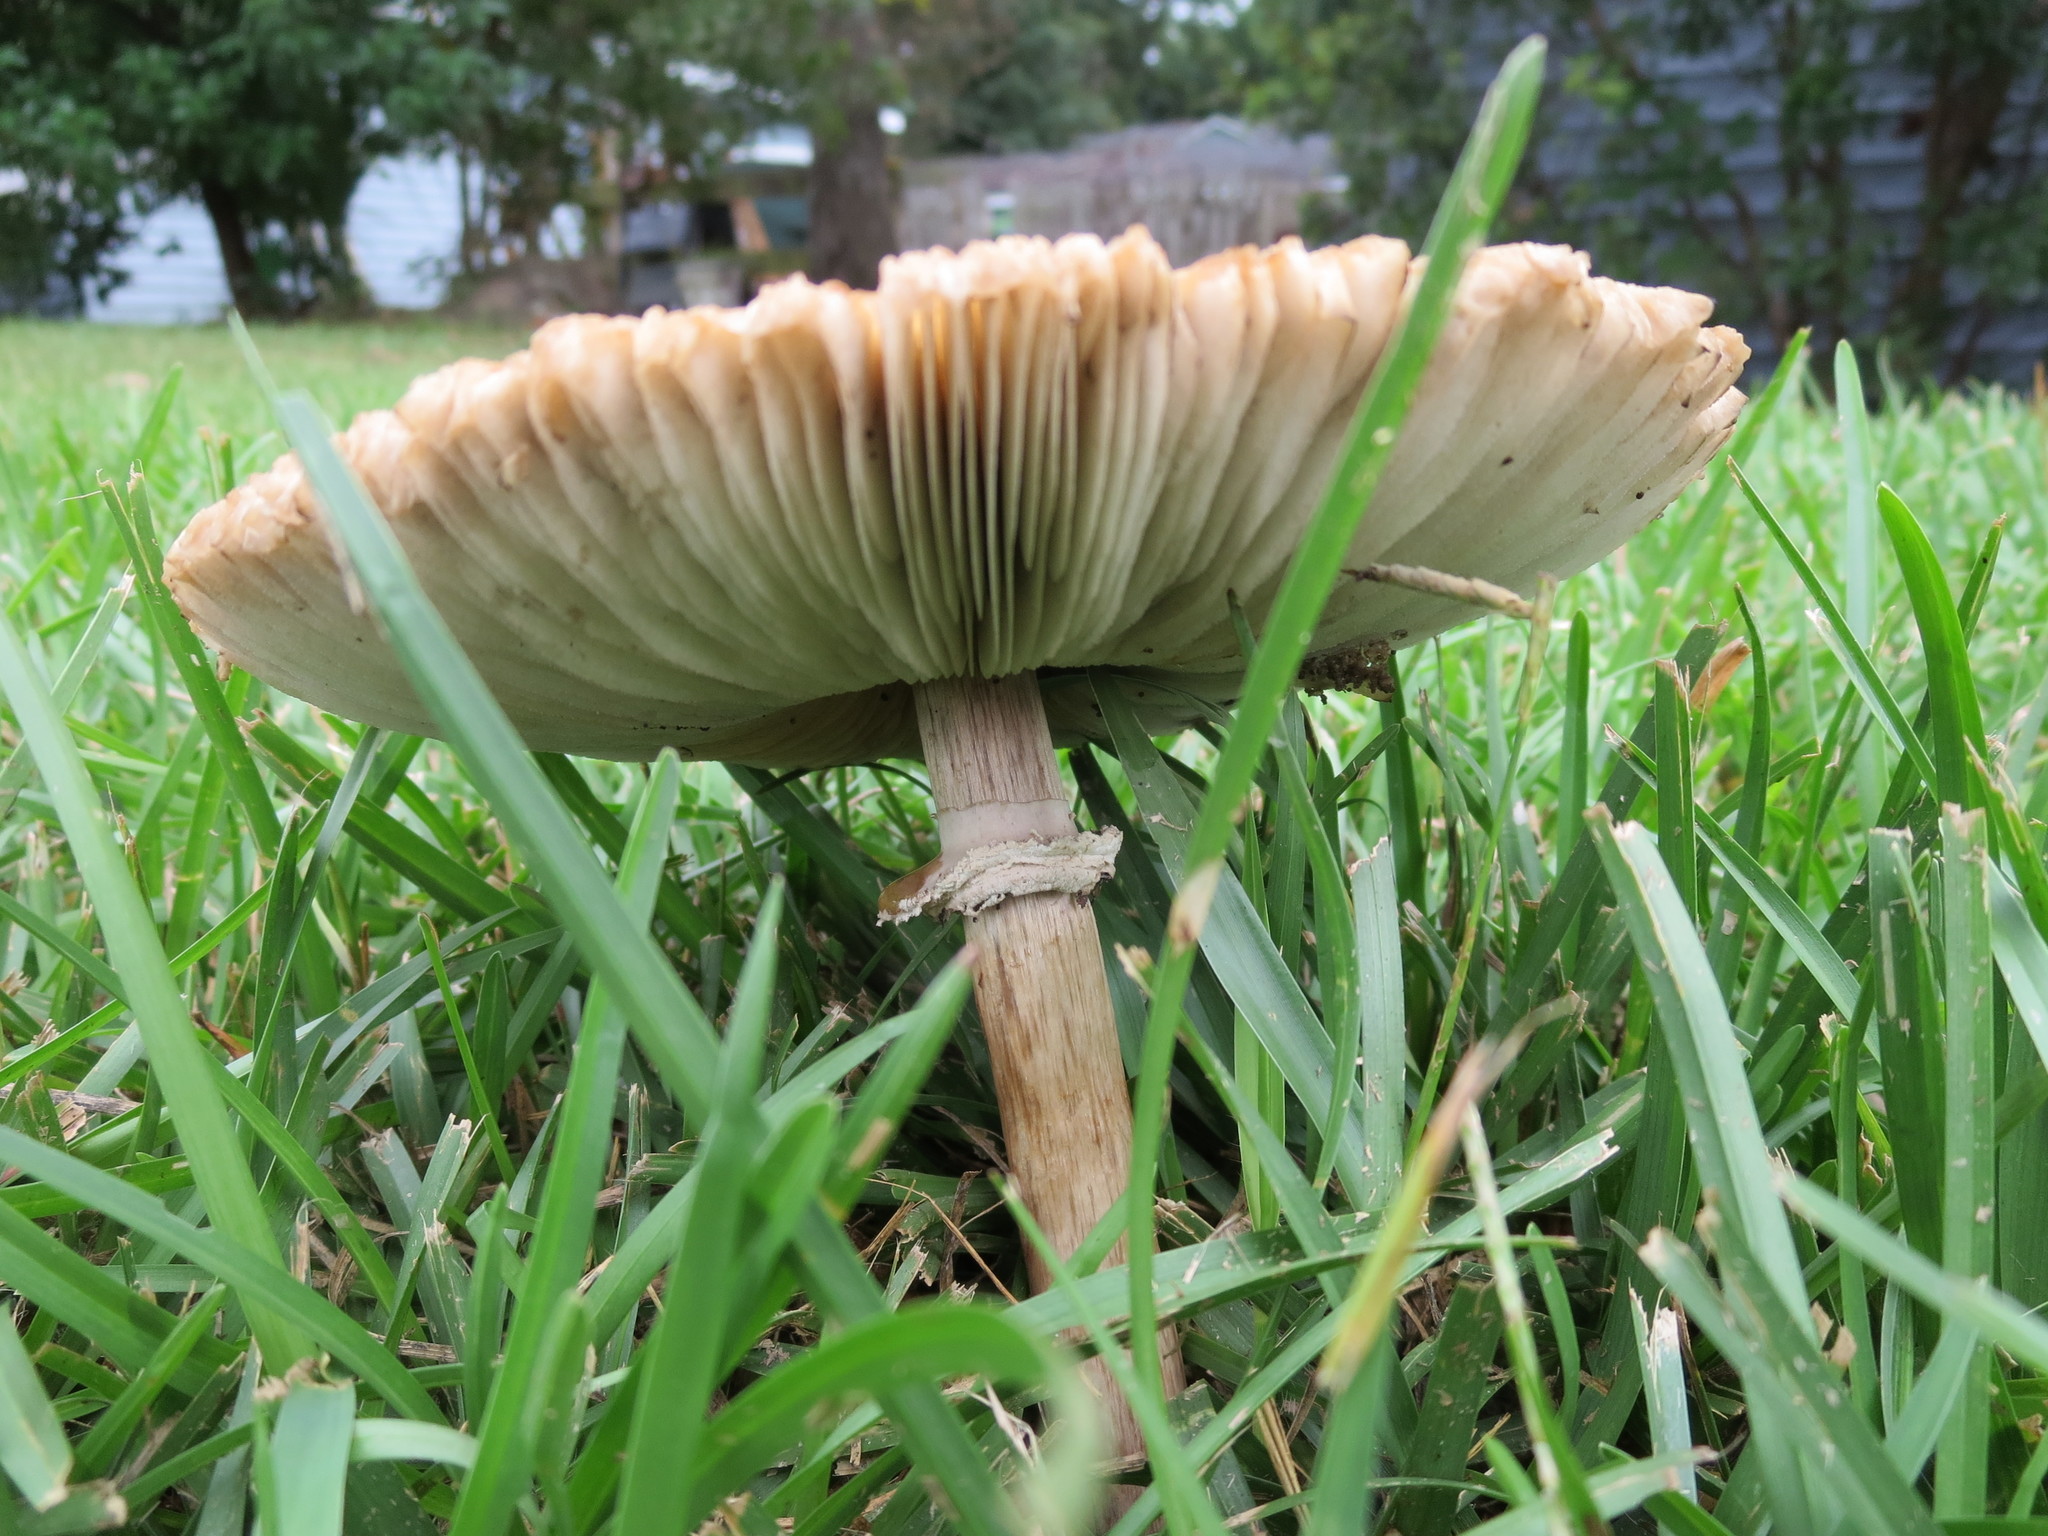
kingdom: Fungi
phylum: Basidiomycota
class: Agaricomycetes
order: Agaricales
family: Agaricaceae
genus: Chlorophyllum
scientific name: Chlorophyllum molybdites
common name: False parasol
